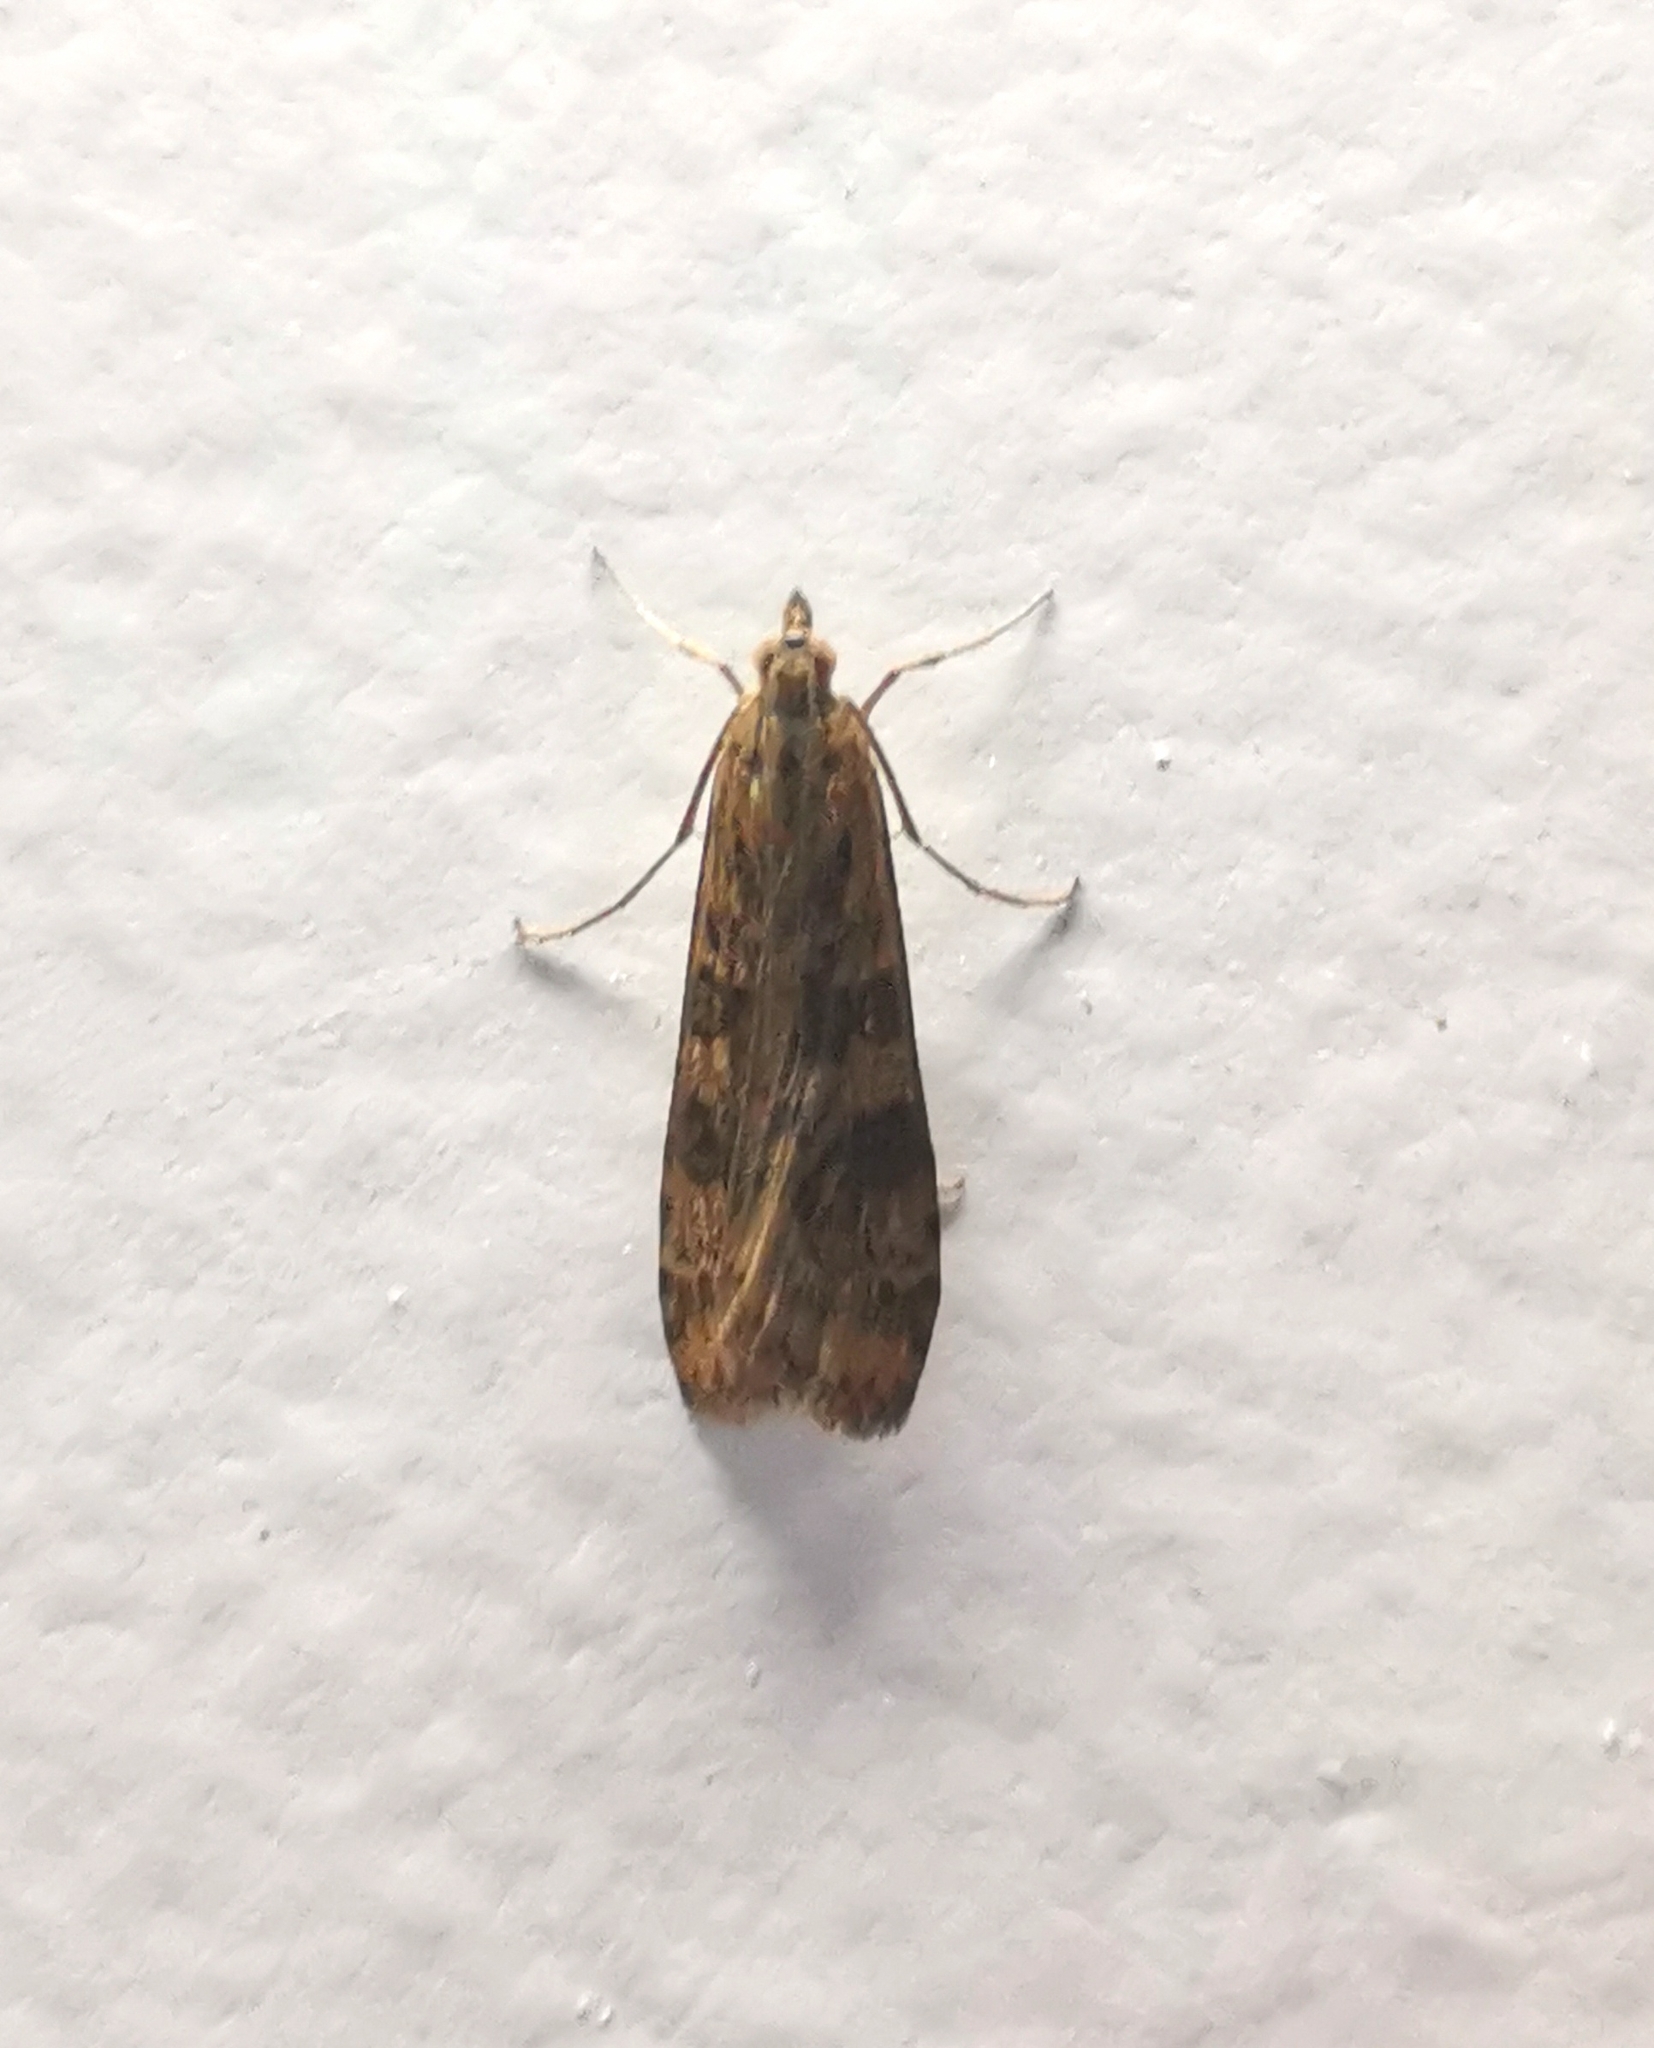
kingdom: Animalia
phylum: Arthropoda
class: Insecta
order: Lepidoptera
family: Crambidae
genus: Nomophila
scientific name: Nomophila noctuella
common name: Rush veneer
